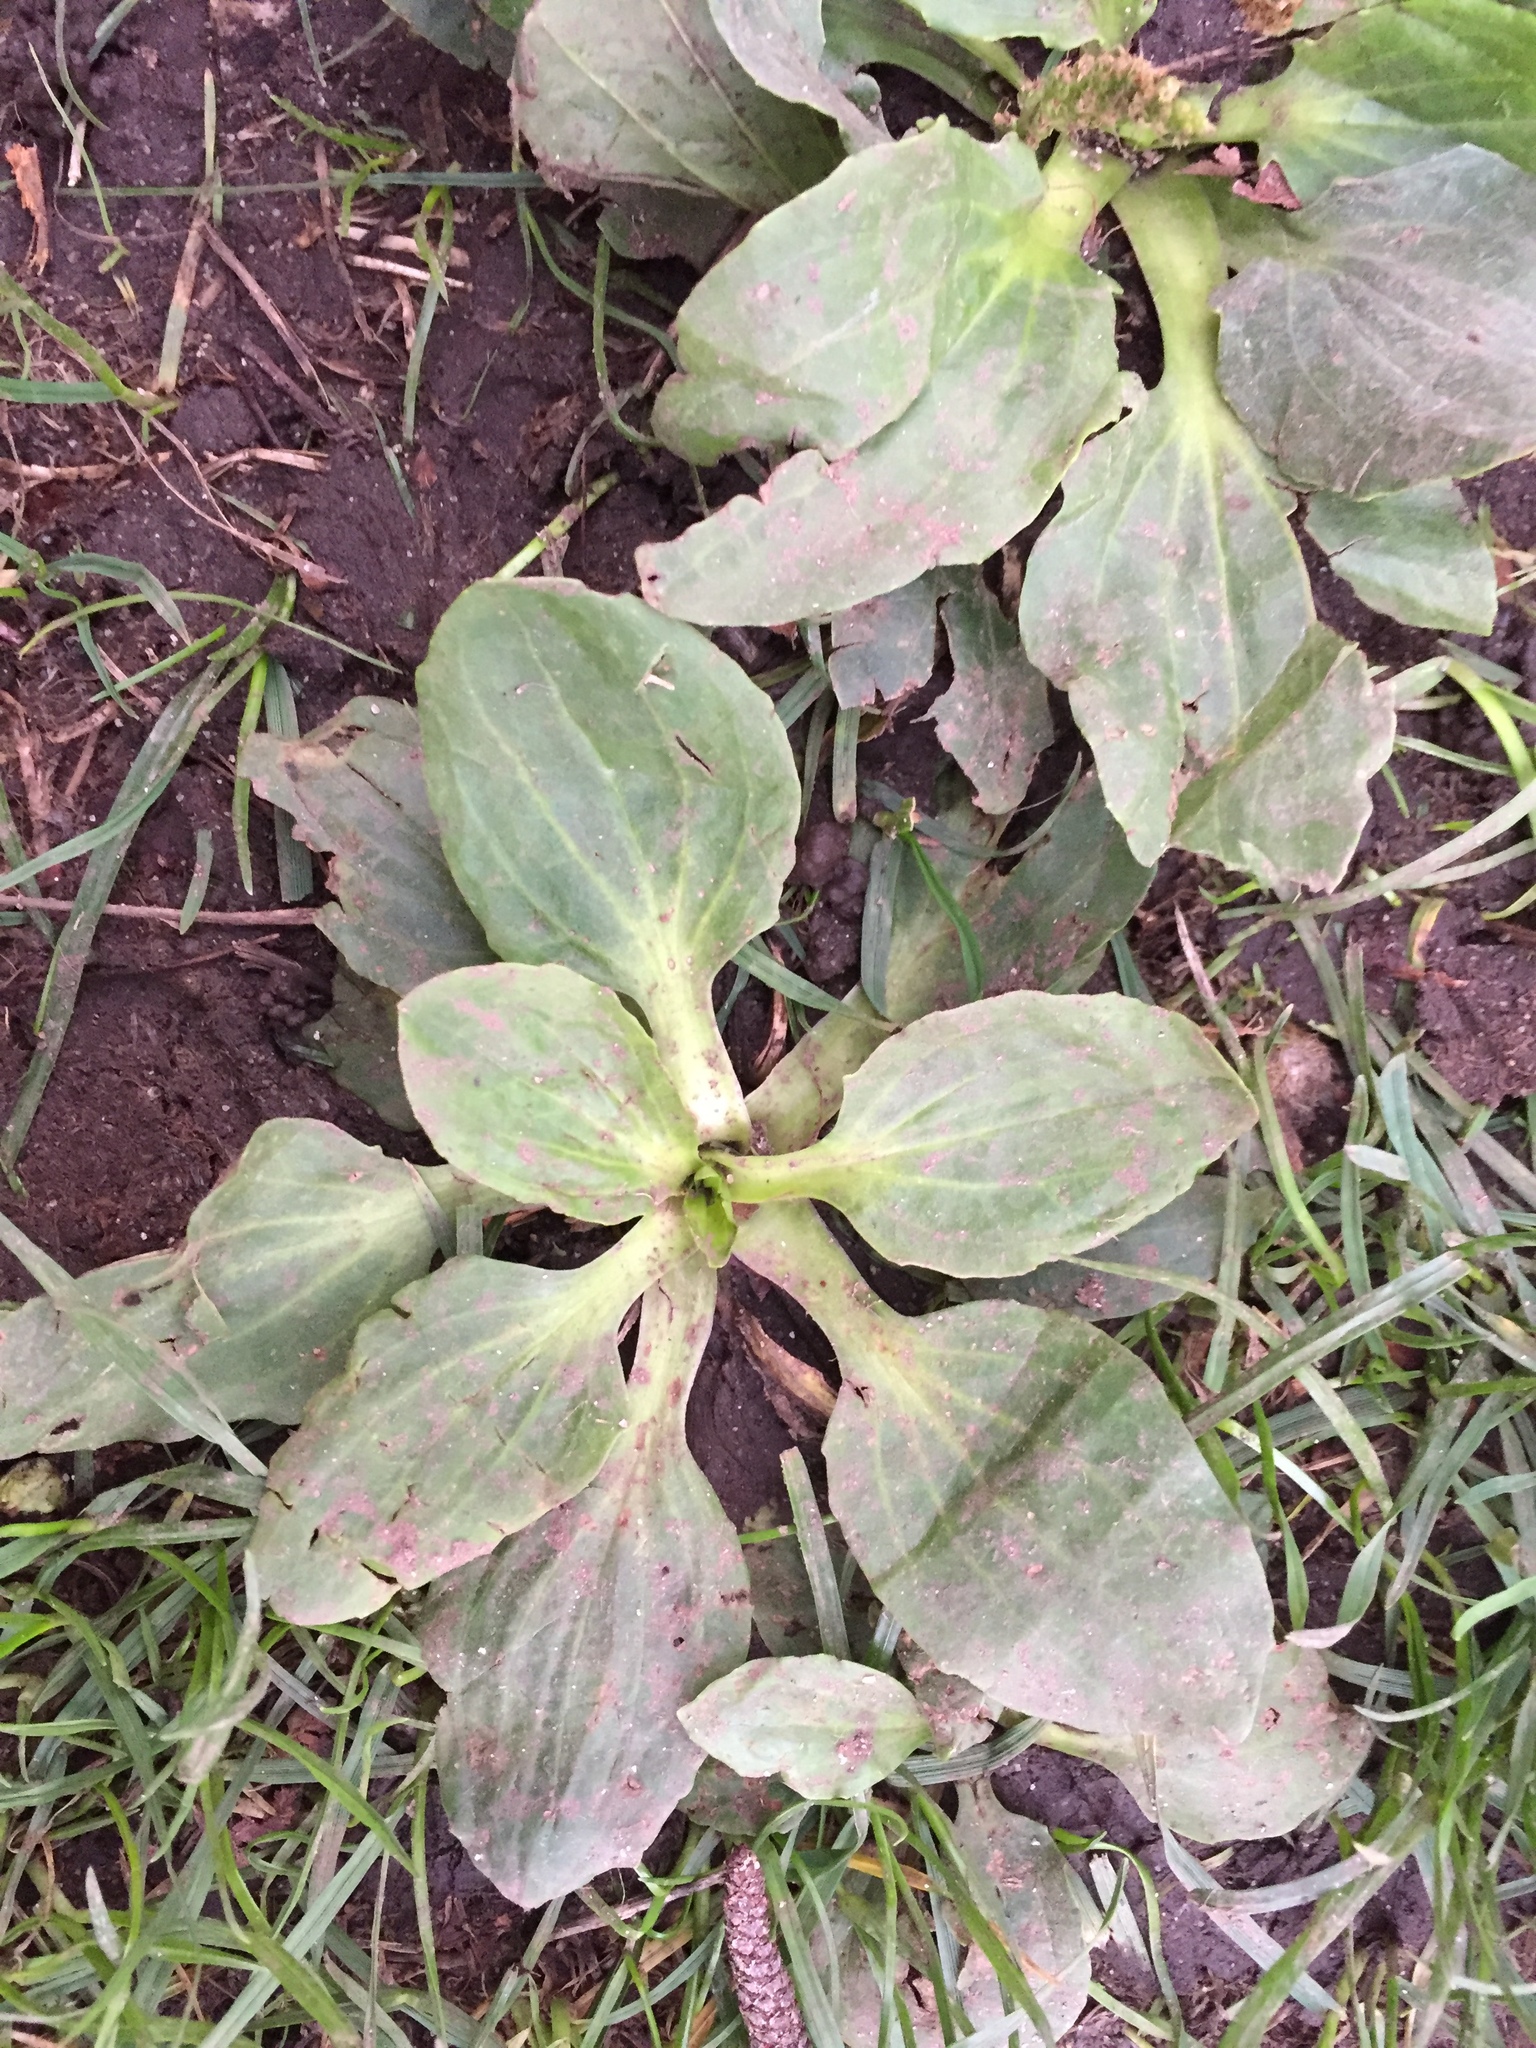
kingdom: Plantae
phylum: Tracheophyta
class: Magnoliopsida
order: Lamiales
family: Plantaginaceae
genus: Plantago
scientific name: Plantago major
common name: Common plantain
